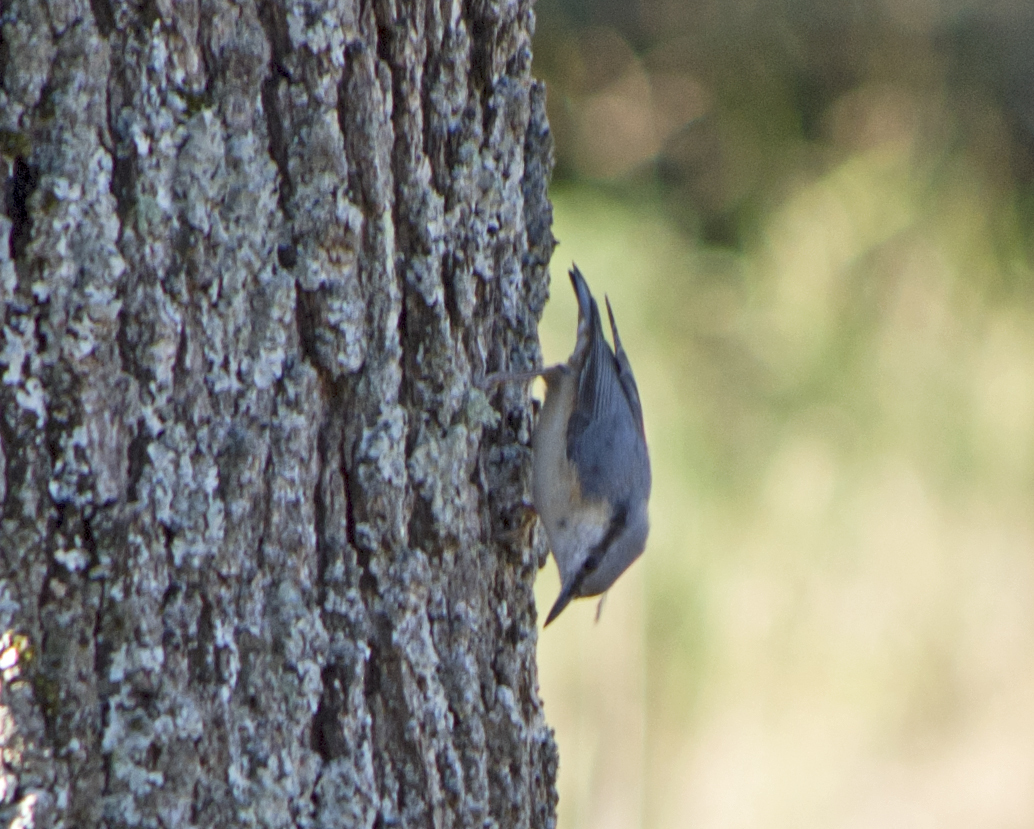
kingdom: Animalia
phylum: Chordata
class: Aves
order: Passeriformes
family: Sittidae
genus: Sitta
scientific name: Sitta europaea
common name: Eurasian nuthatch
